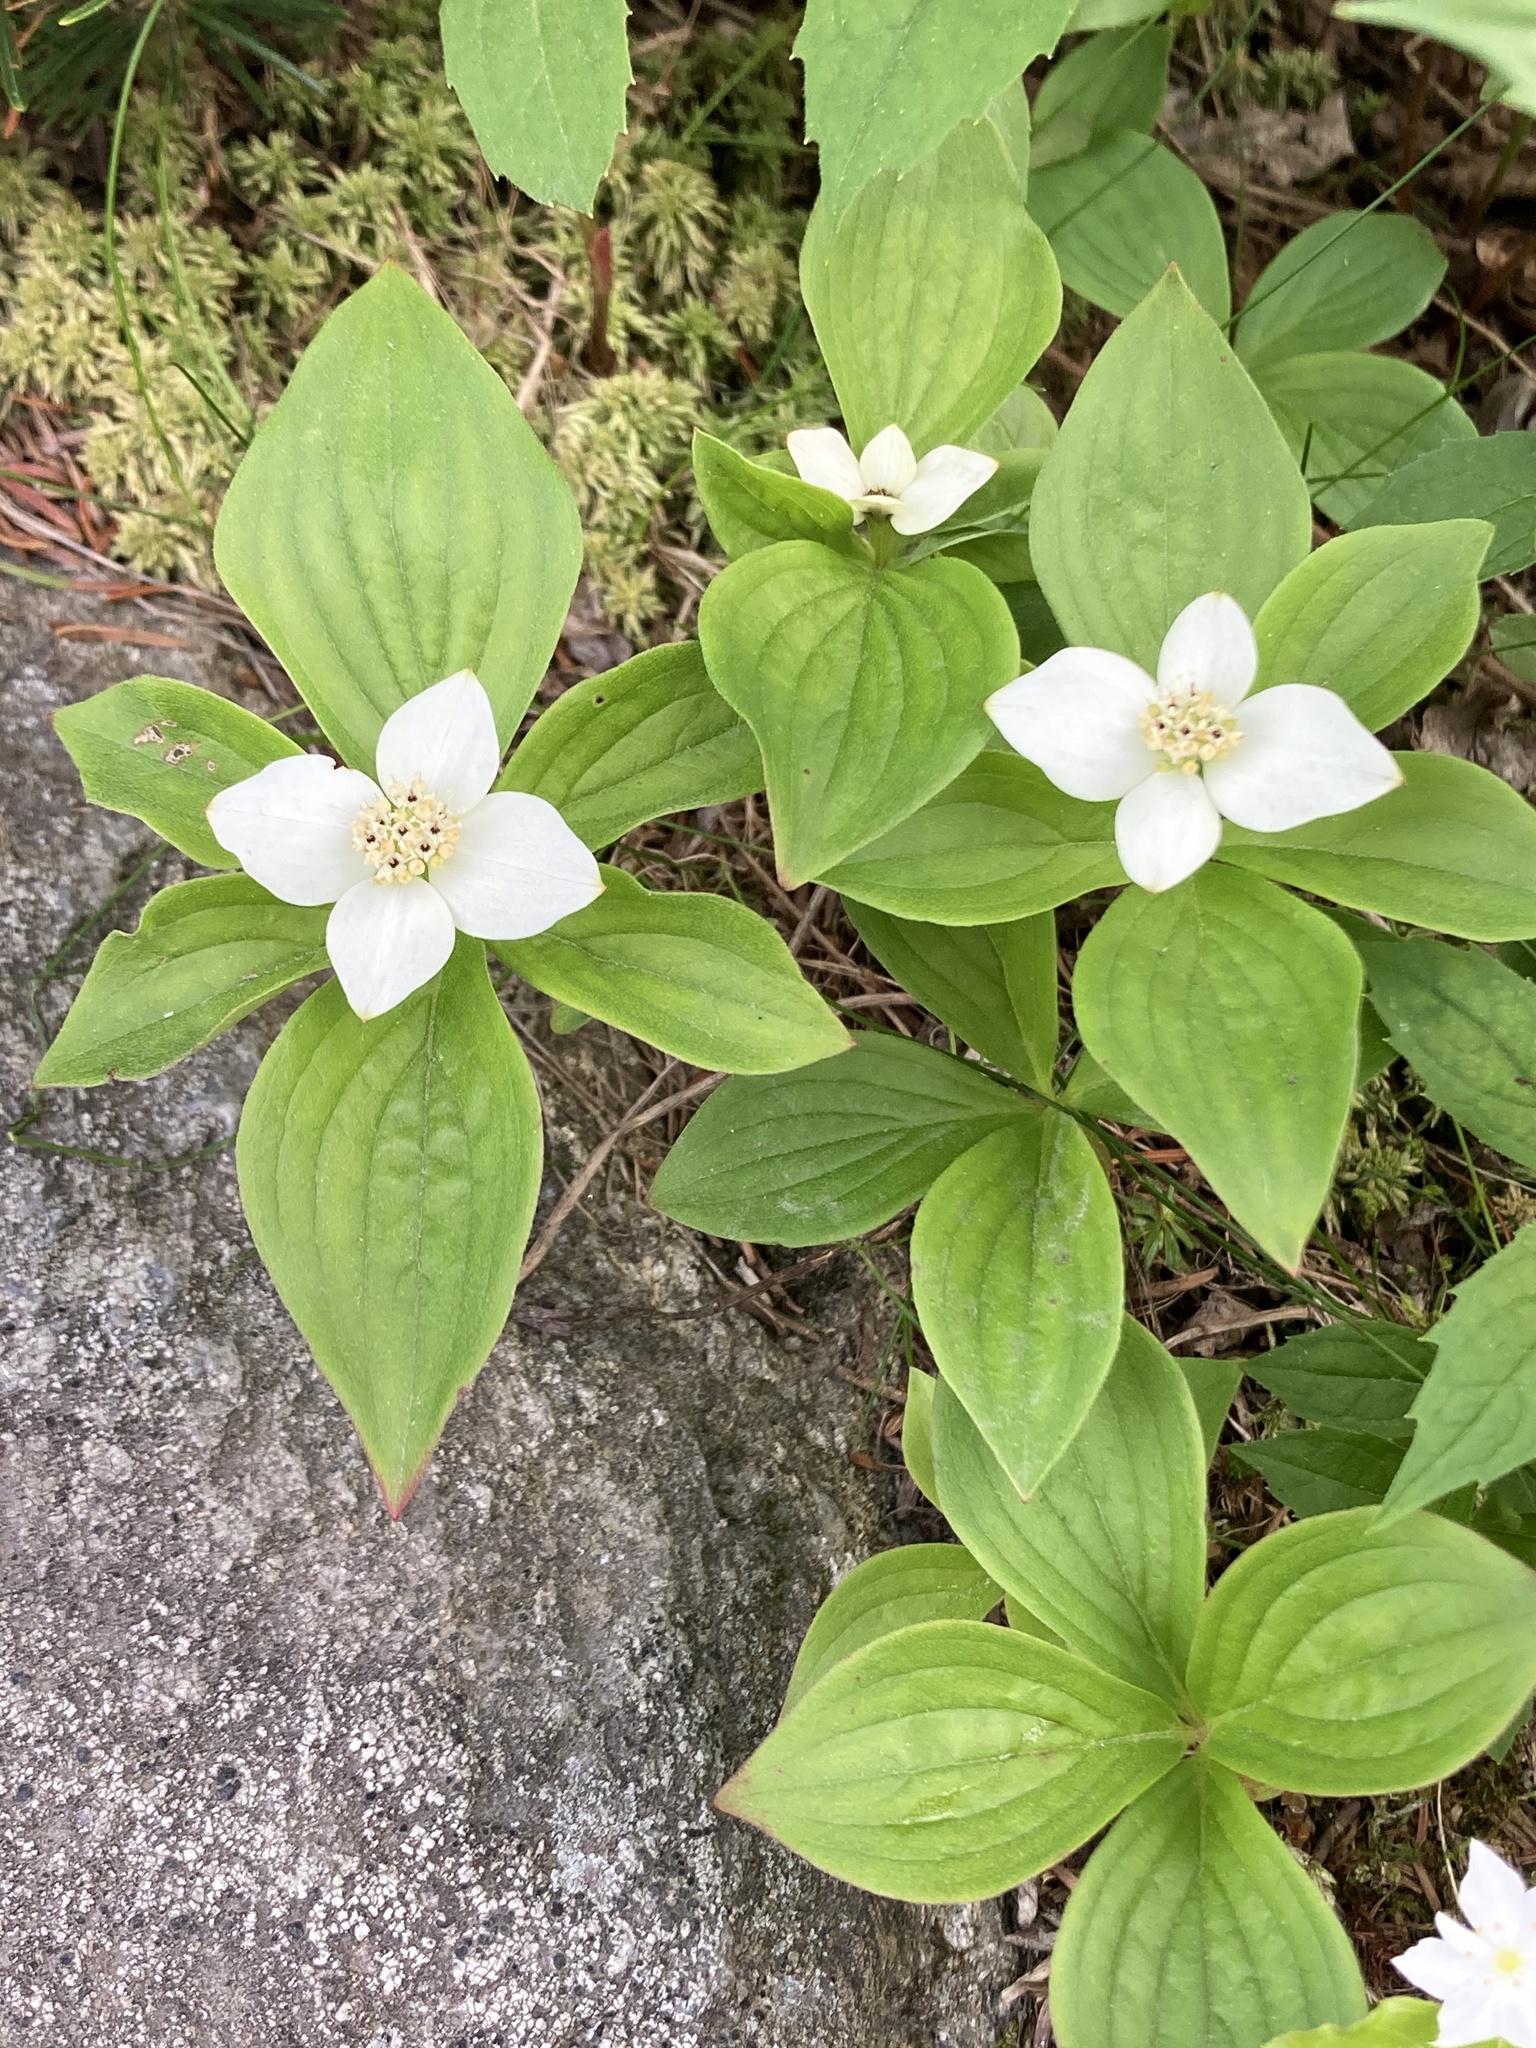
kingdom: Plantae
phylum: Tracheophyta
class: Magnoliopsida
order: Cornales
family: Cornaceae
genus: Cornus
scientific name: Cornus canadensis
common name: Creeping dogwood
